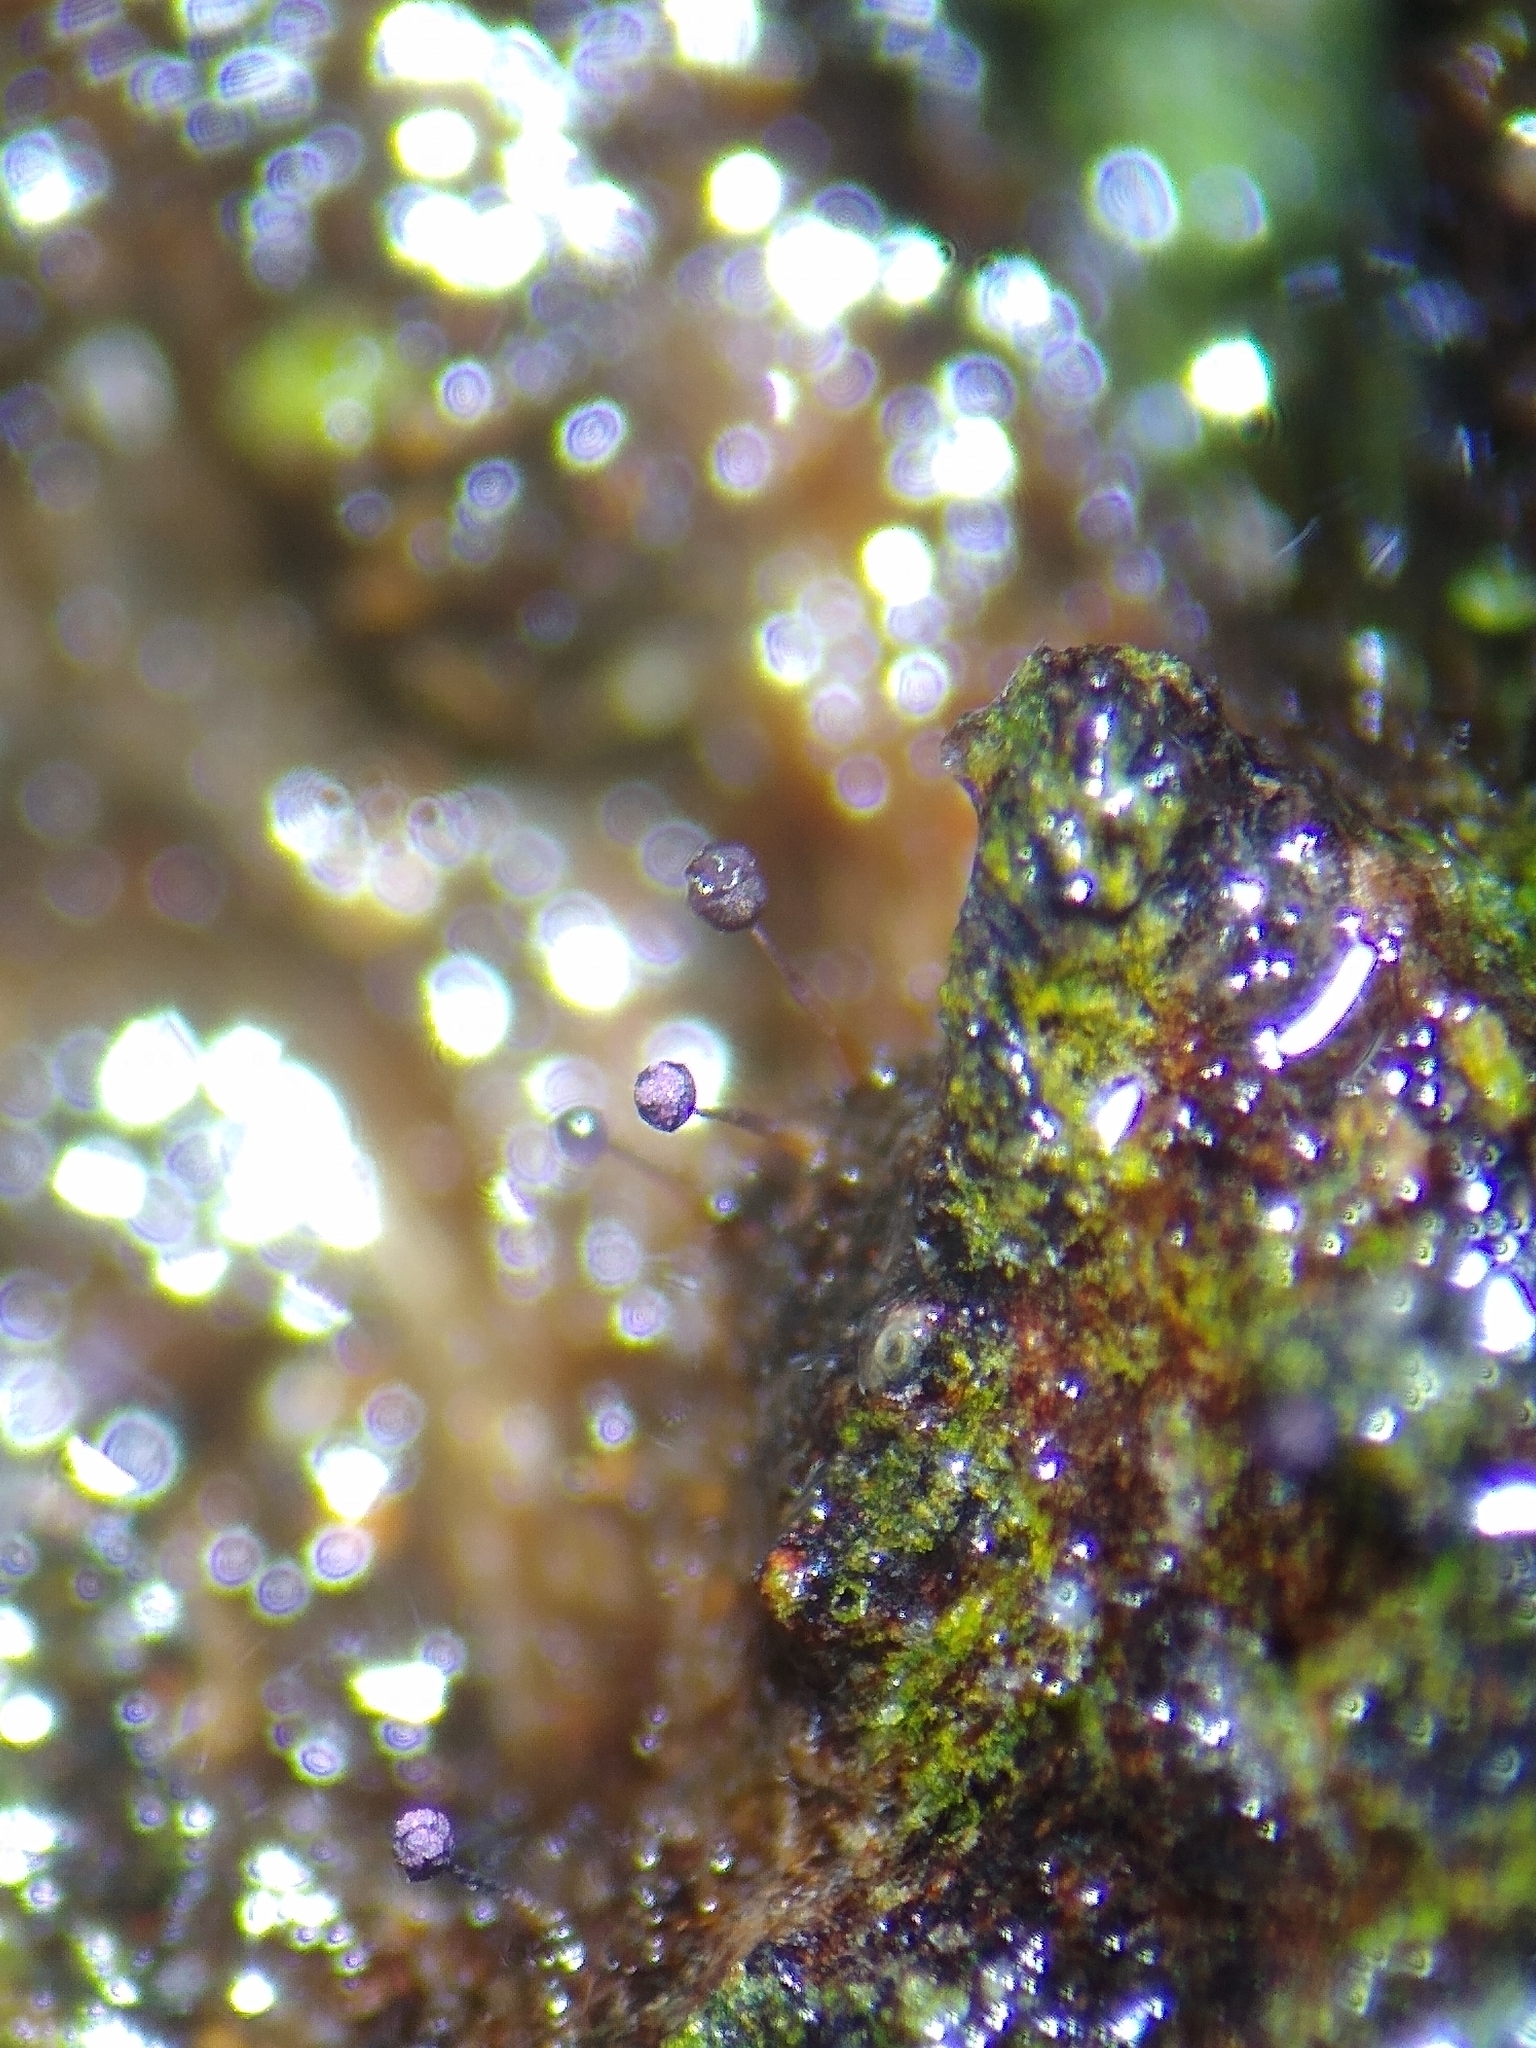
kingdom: Protozoa
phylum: Mycetozoa
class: Myxomycetes
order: Cribrariales
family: Cribrariaceae
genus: Cribraria
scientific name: Cribraria violacea
